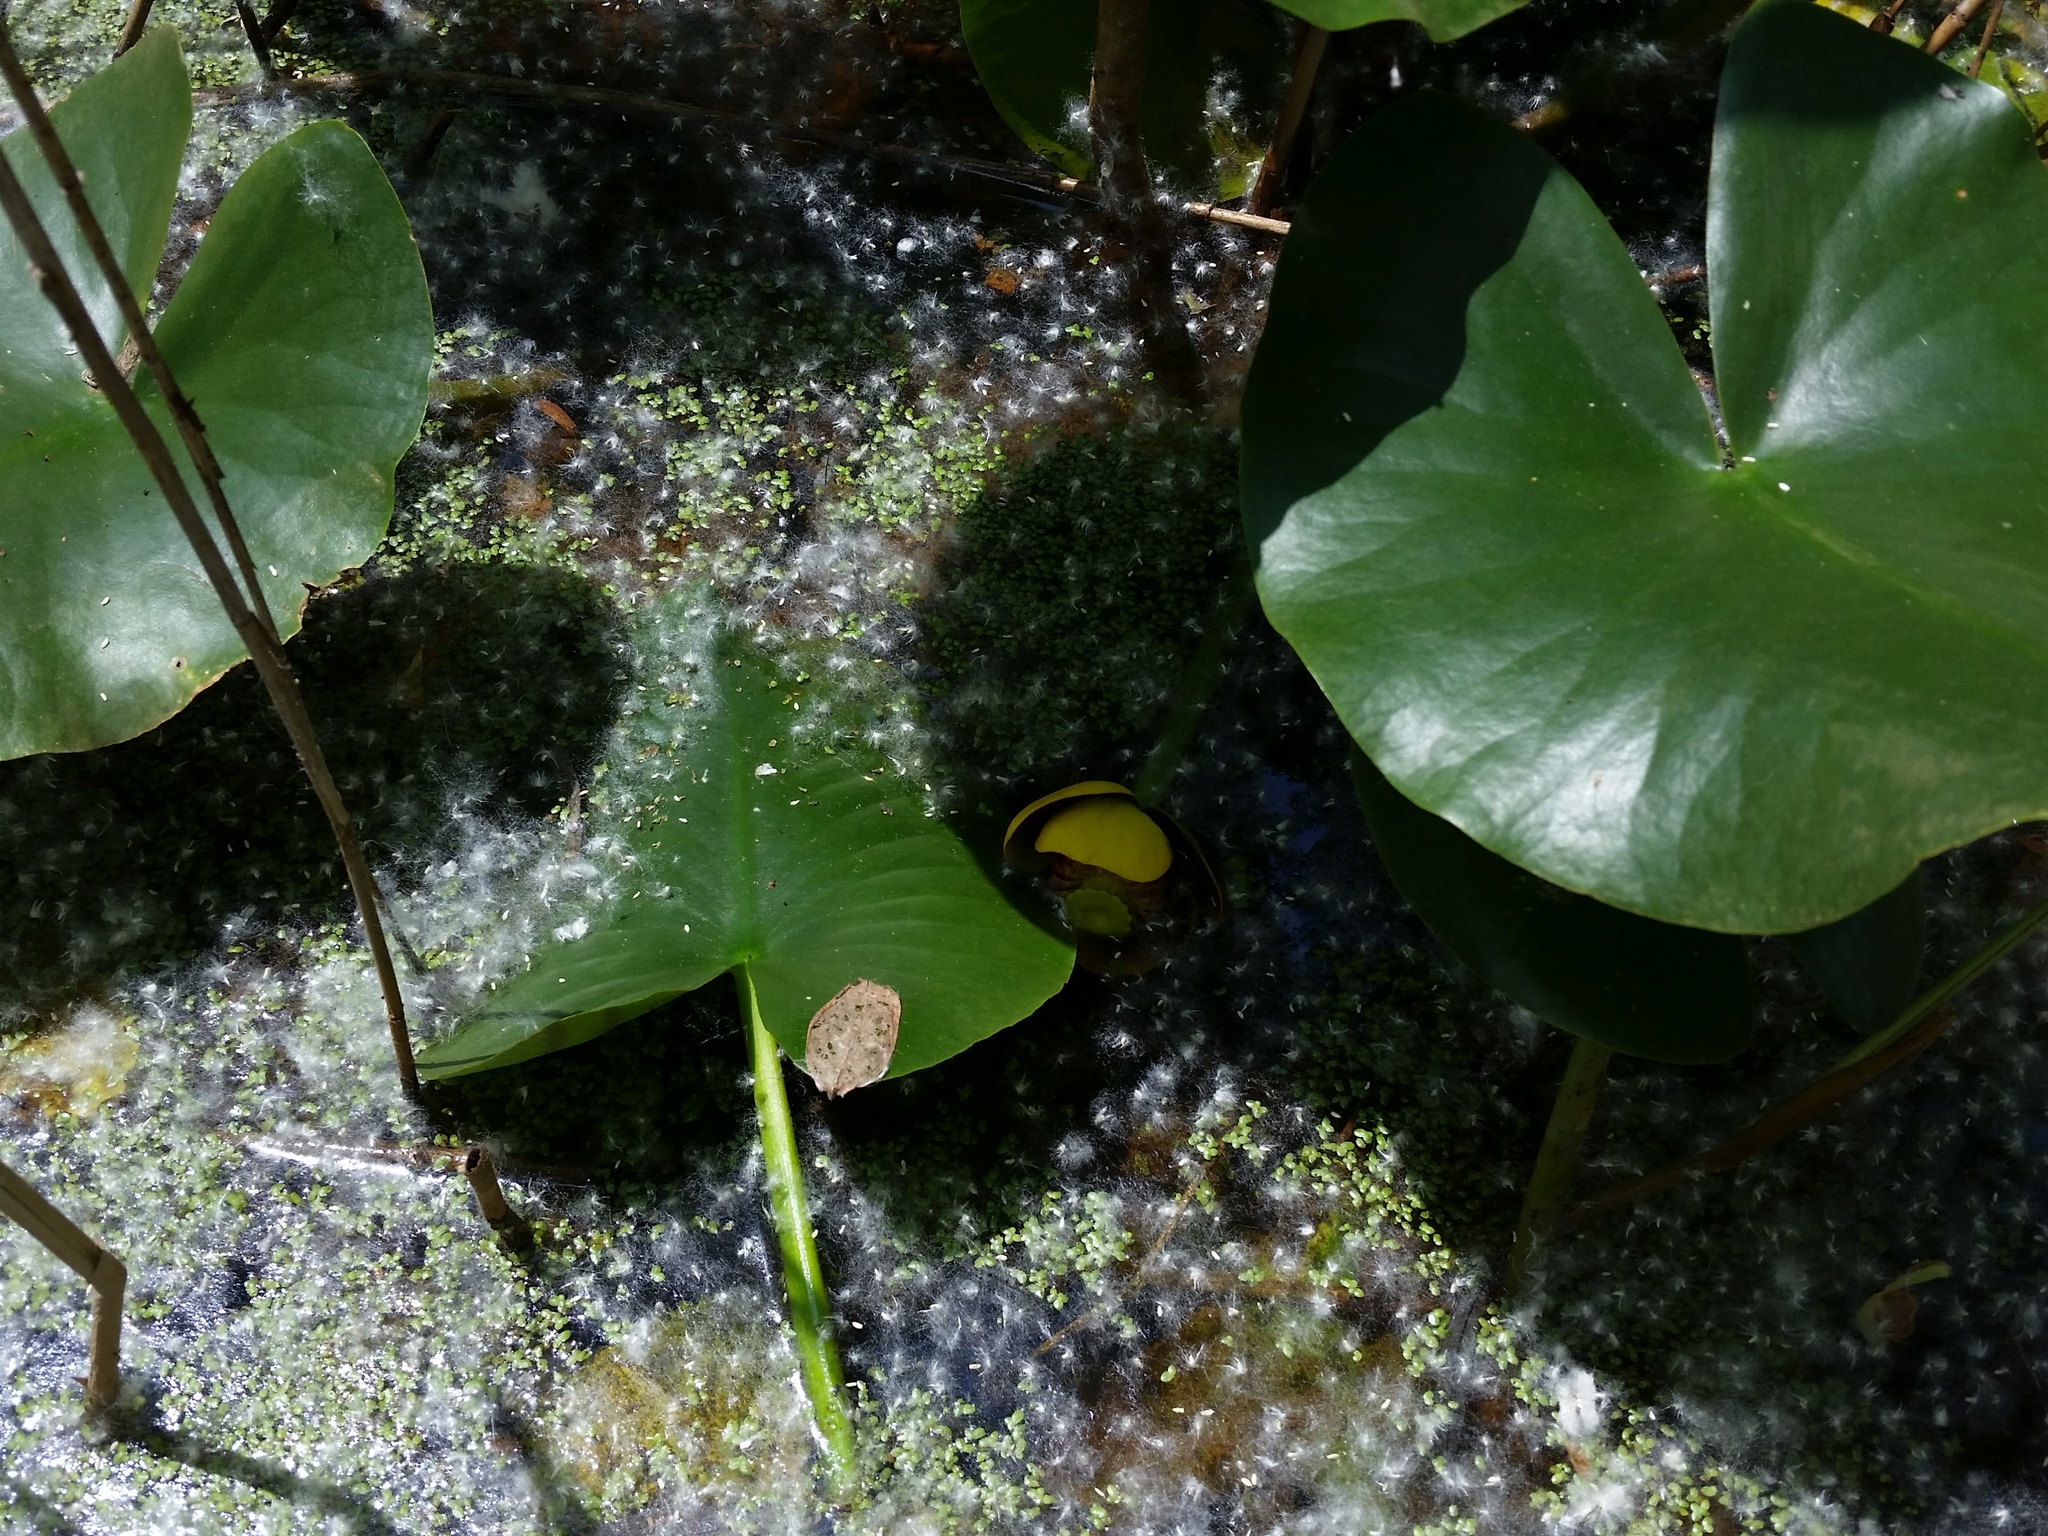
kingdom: Plantae
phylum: Tracheophyta
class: Magnoliopsida
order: Nymphaeales
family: Nymphaeaceae
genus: Nuphar
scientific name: Nuphar advena
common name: Spatter-dock
